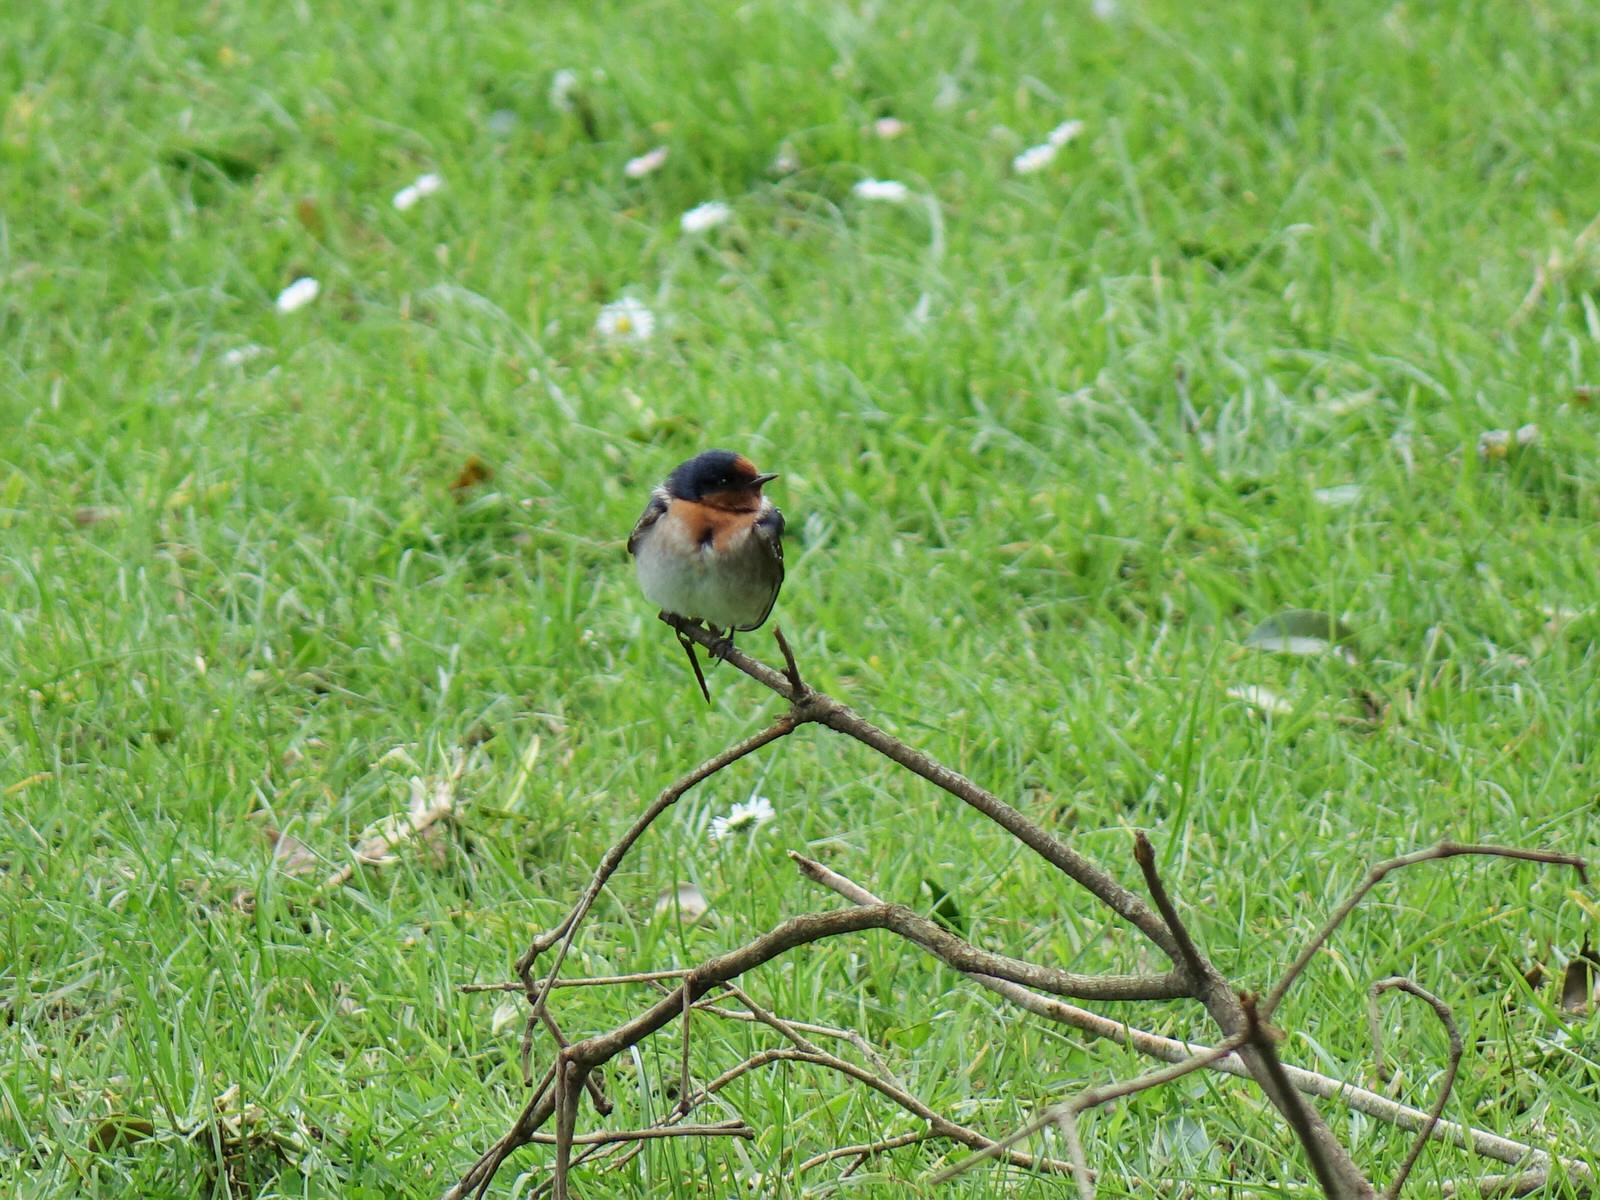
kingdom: Animalia
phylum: Chordata
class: Aves
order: Passeriformes
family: Hirundinidae
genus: Hirundo
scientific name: Hirundo neoxena
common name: Welcome swallow
